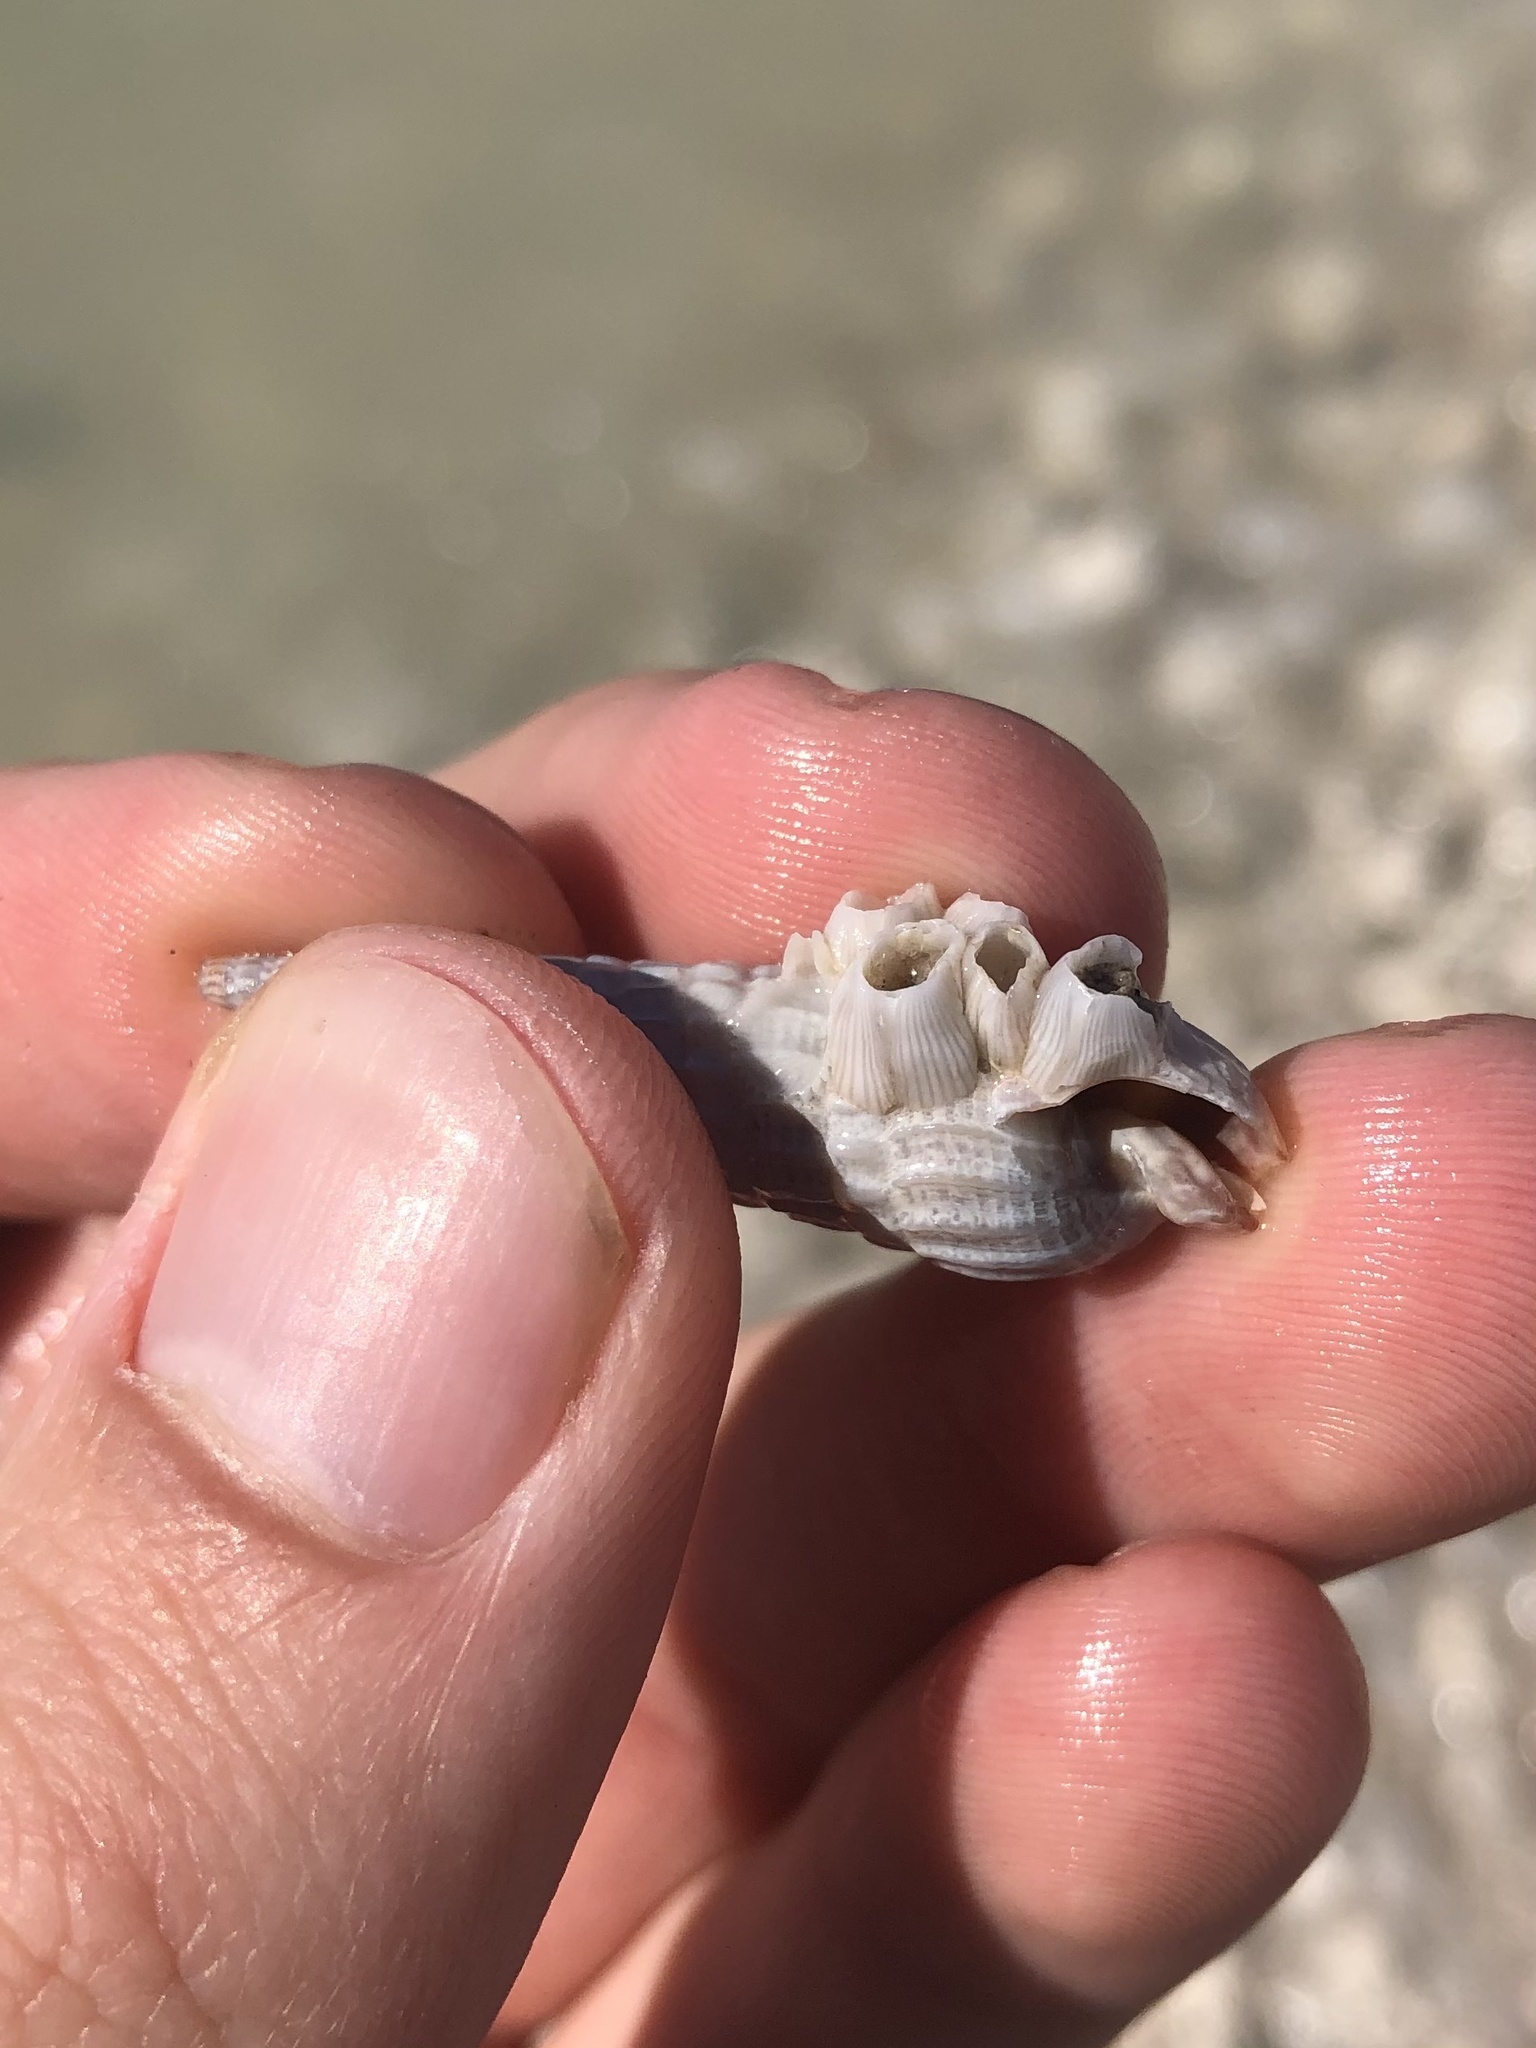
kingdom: Animalia
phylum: Mollusca
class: Gastropoda
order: Neogastropoda
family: Terebridae
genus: Neoterebra
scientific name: Neoterebra dislocata
